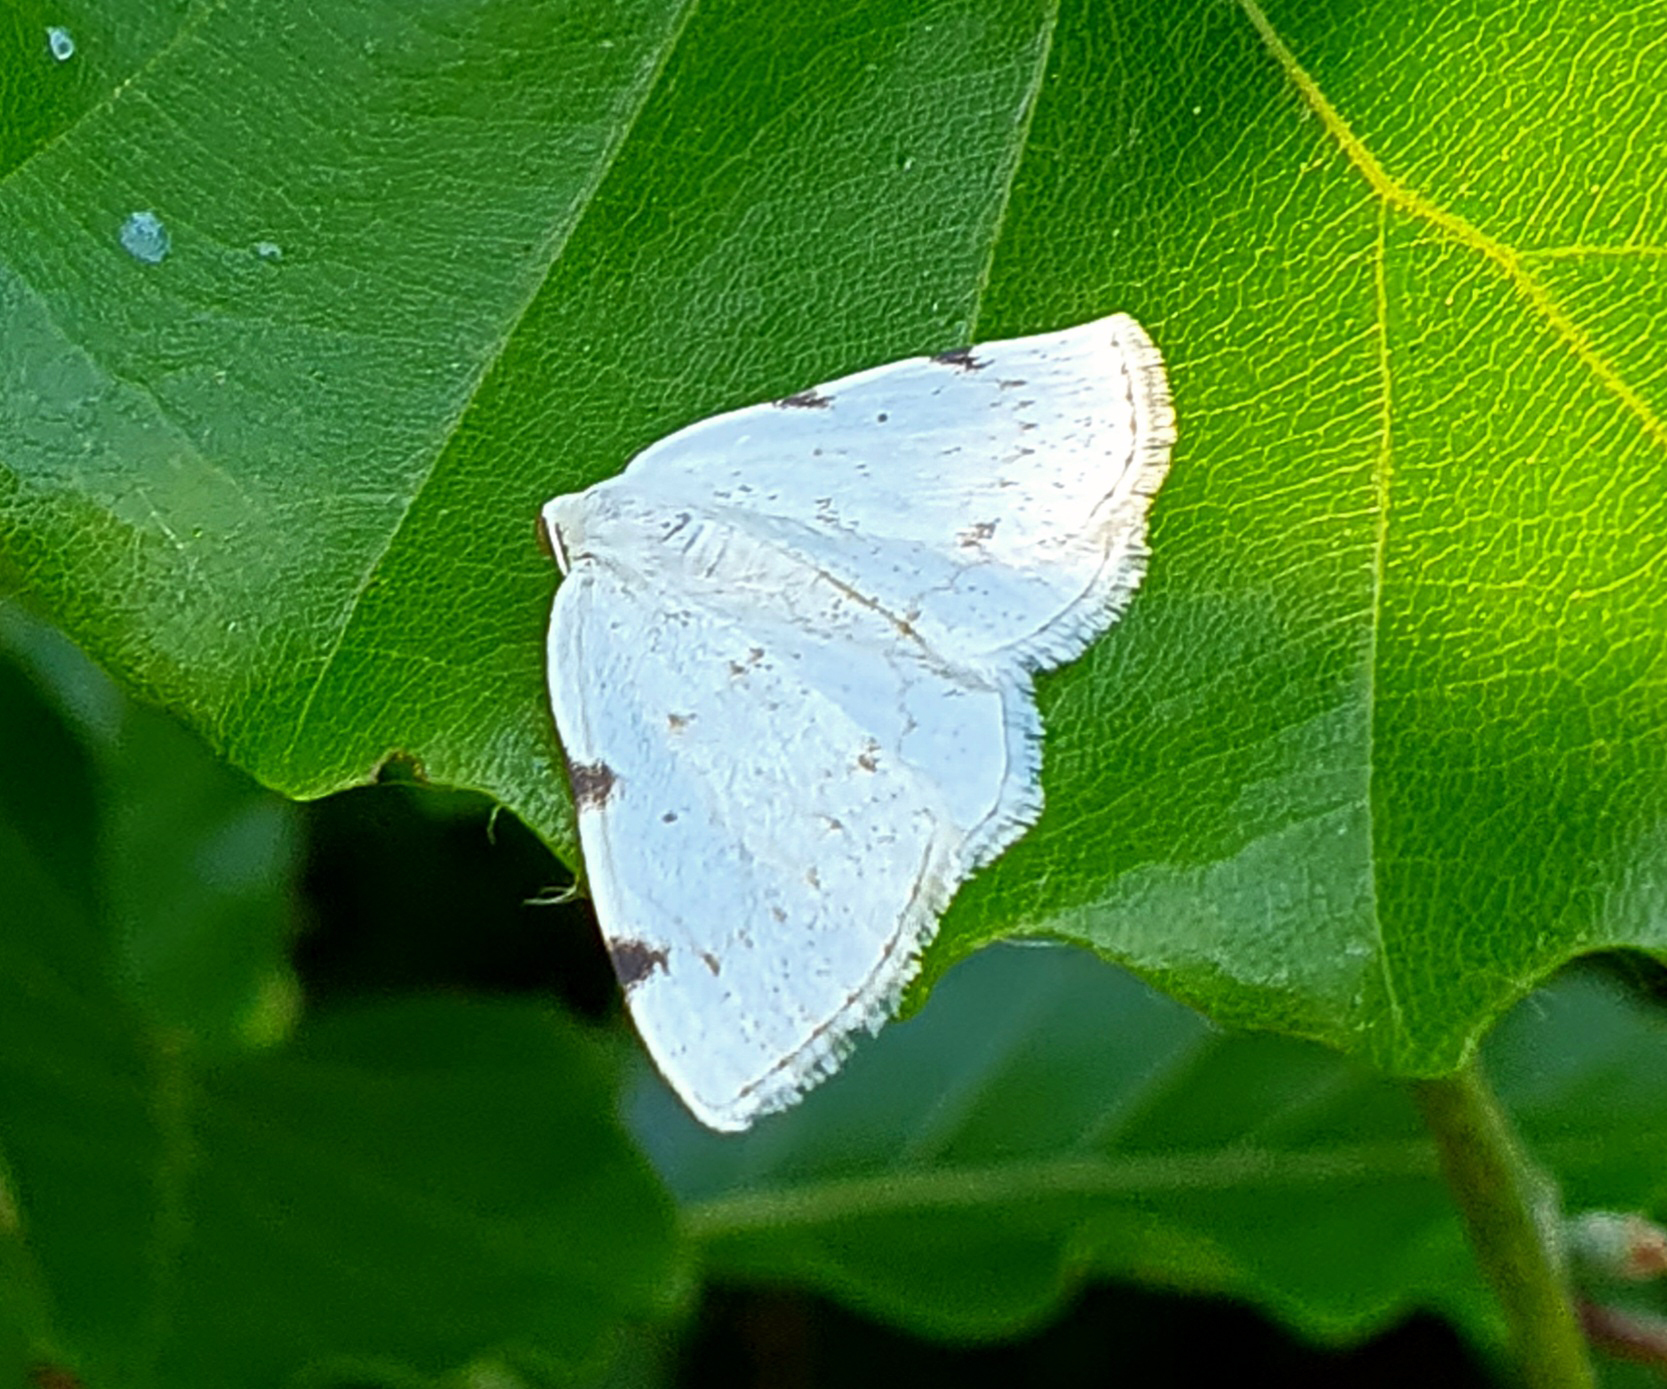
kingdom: Animalia
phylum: Arthropoda
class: Insecta
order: Lepidoptera
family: Geometridae
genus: Lomographa
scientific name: Lomographa bimaculata
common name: White-pinion spotted
